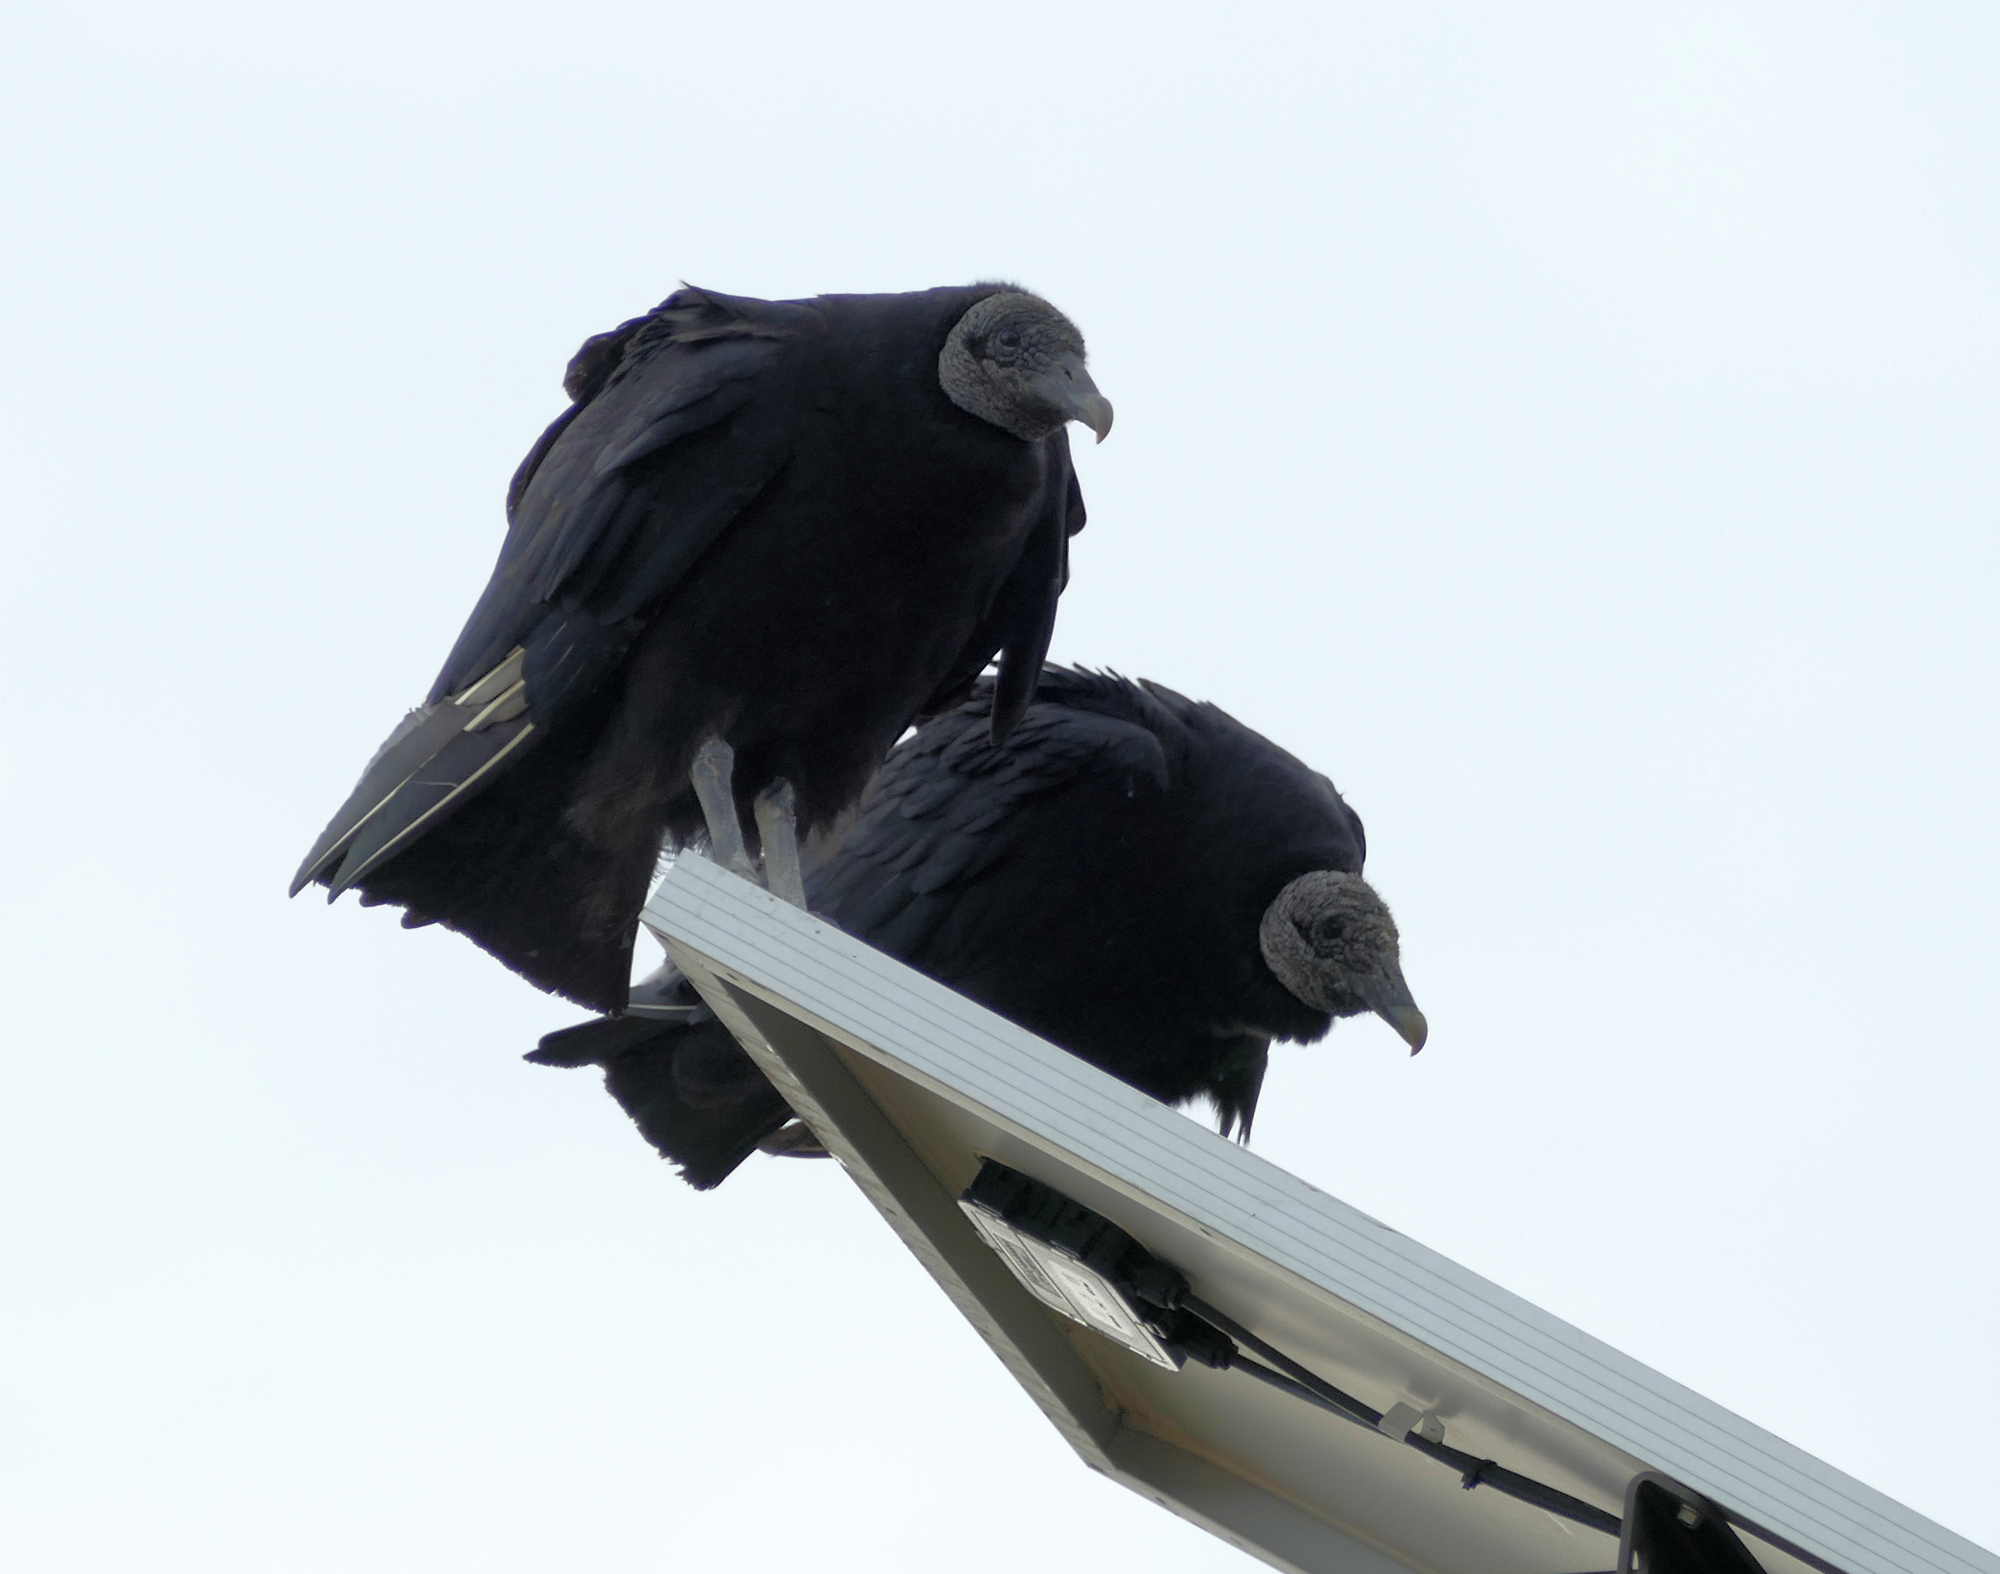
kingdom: Animalia
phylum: Chordata
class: Aves
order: Accipitriformes
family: Cathartidae
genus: Coragyps
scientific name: Coragyps atratus
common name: Black vulture
